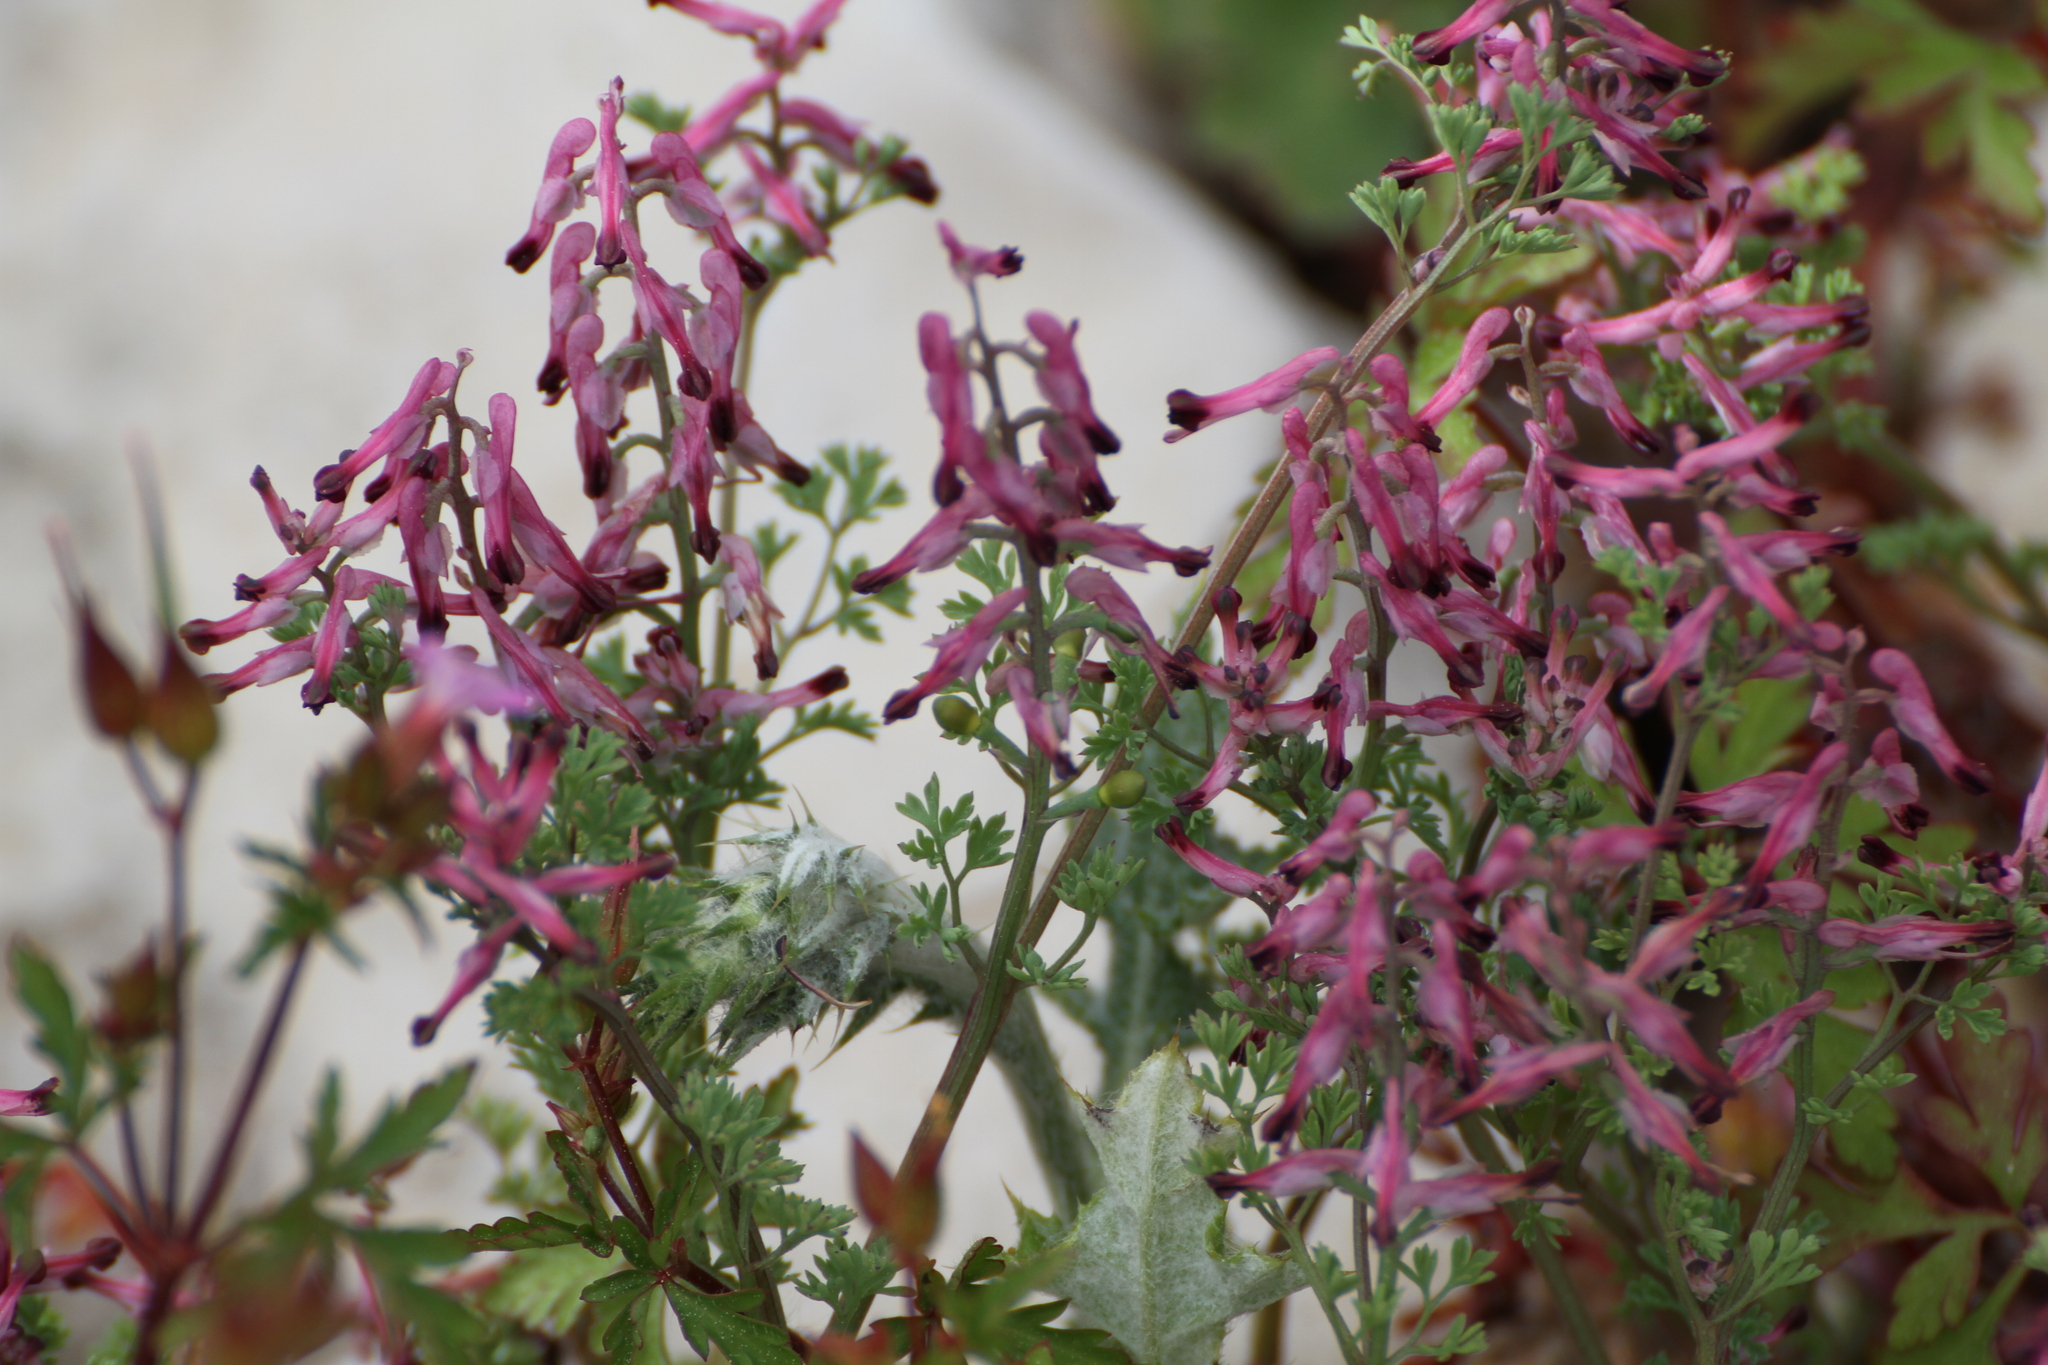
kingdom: Plantae
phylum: Tracheophyta
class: Magnoliopsida
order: Ranunculales
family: Papaveraceae
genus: Fumaria
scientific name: Fumaria petteri
